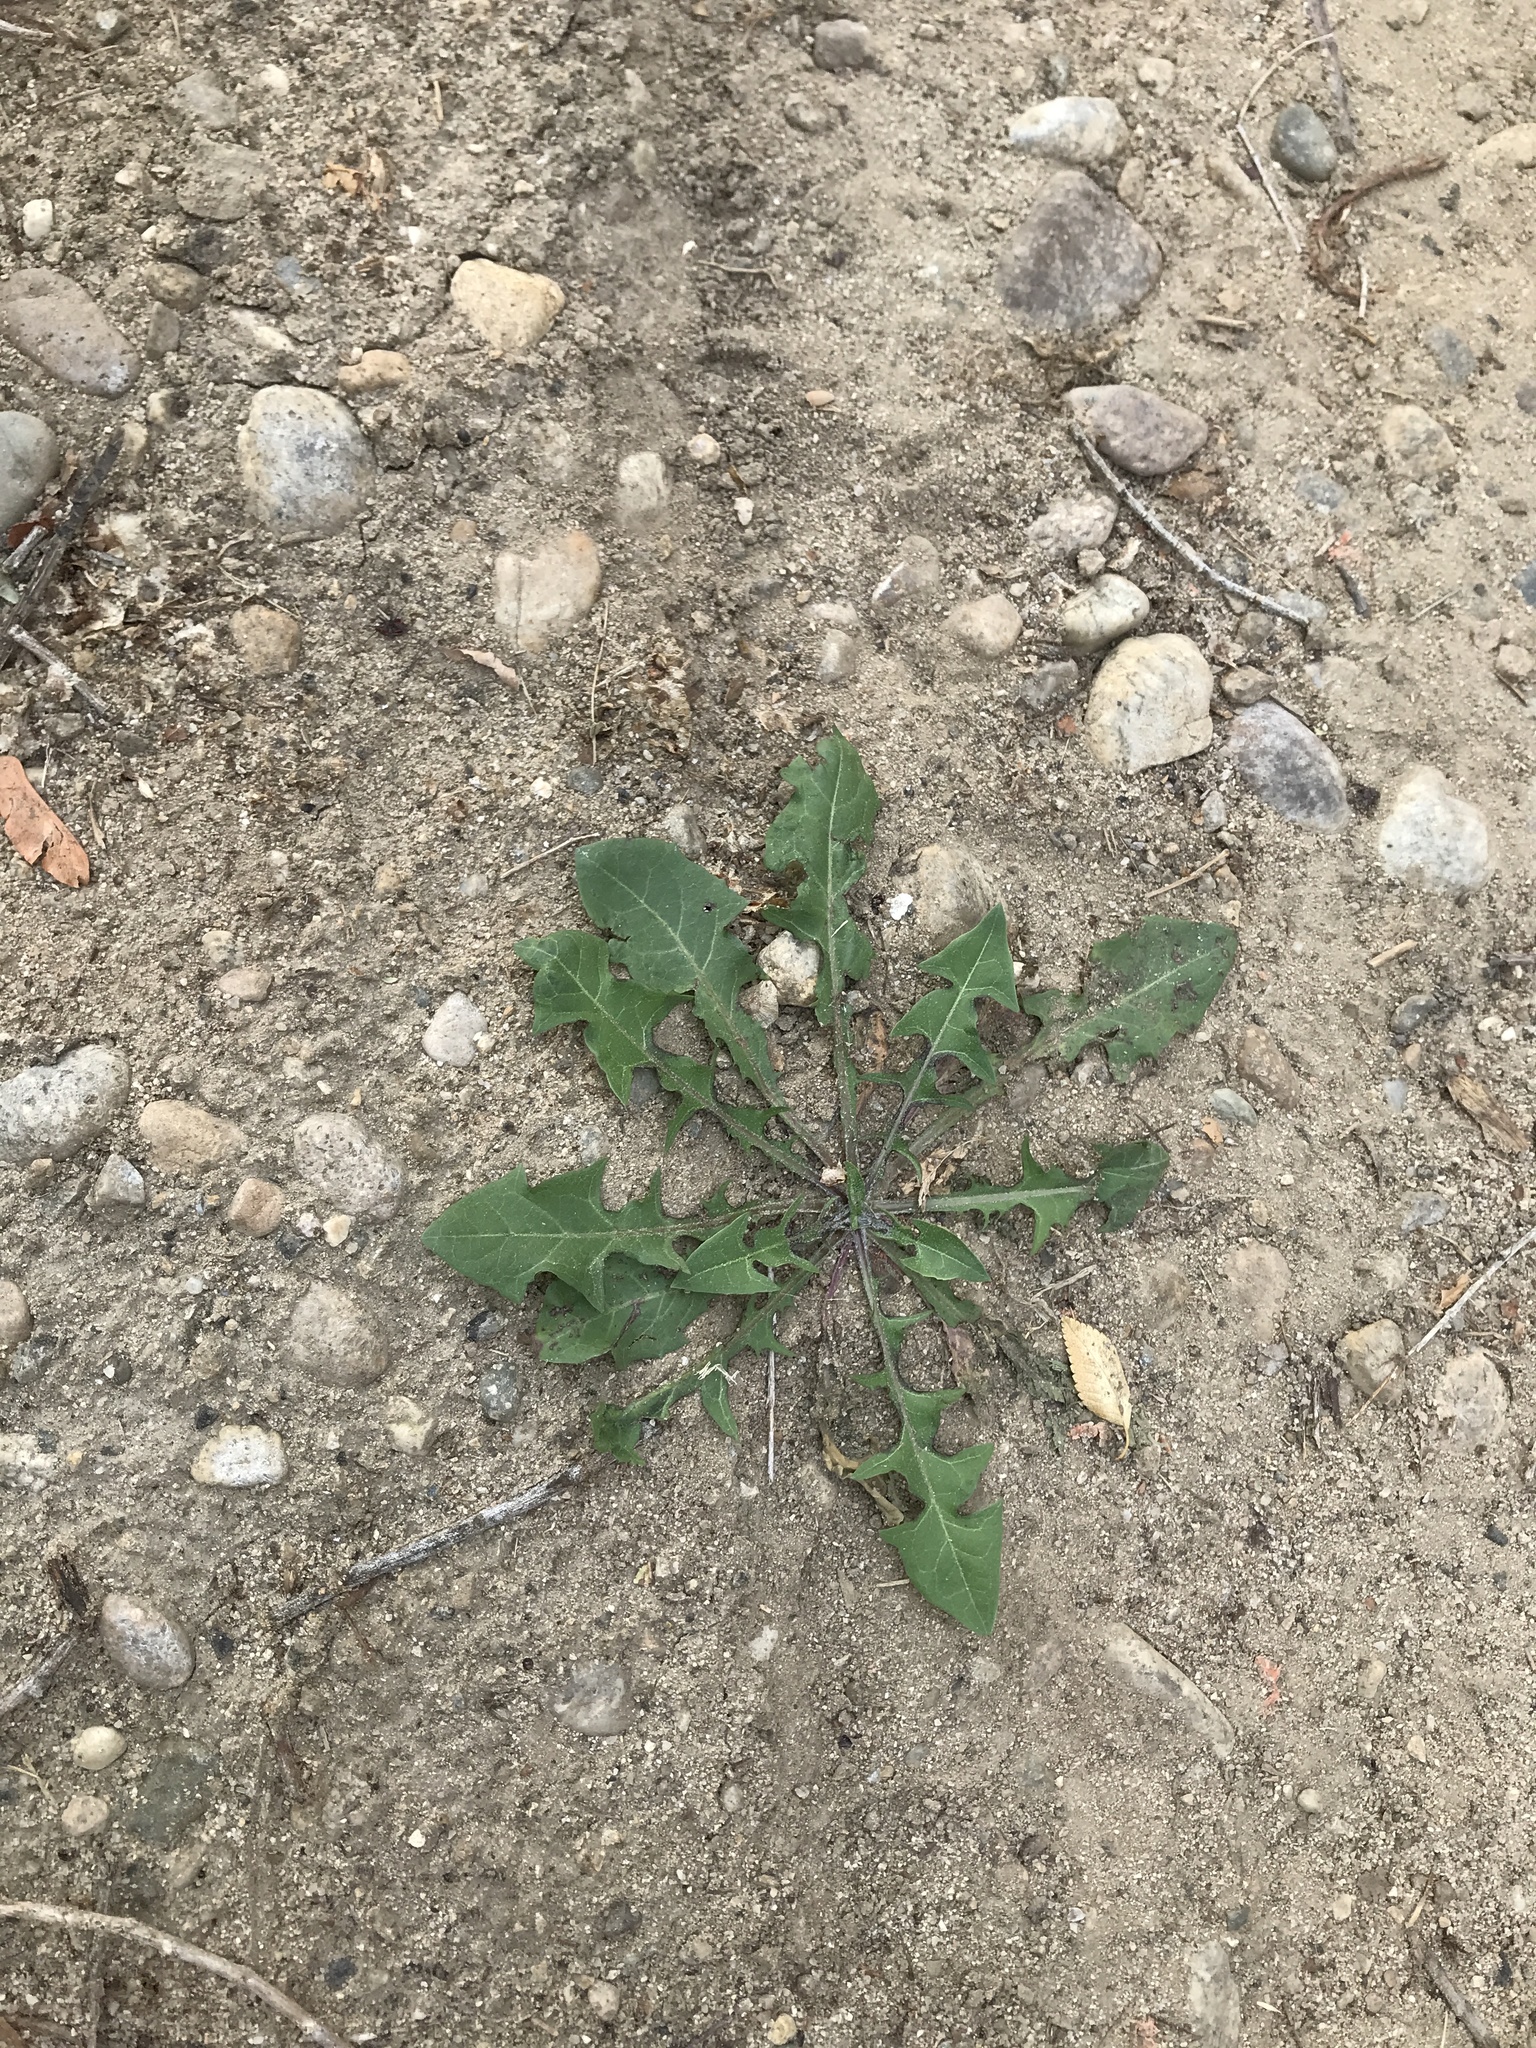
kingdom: Plantae
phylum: Tracheophyta
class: Magnoliopsida
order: Asterales
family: Asteraceae
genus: Taraxacum
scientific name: Taraxacum officinale
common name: Common dandelion
